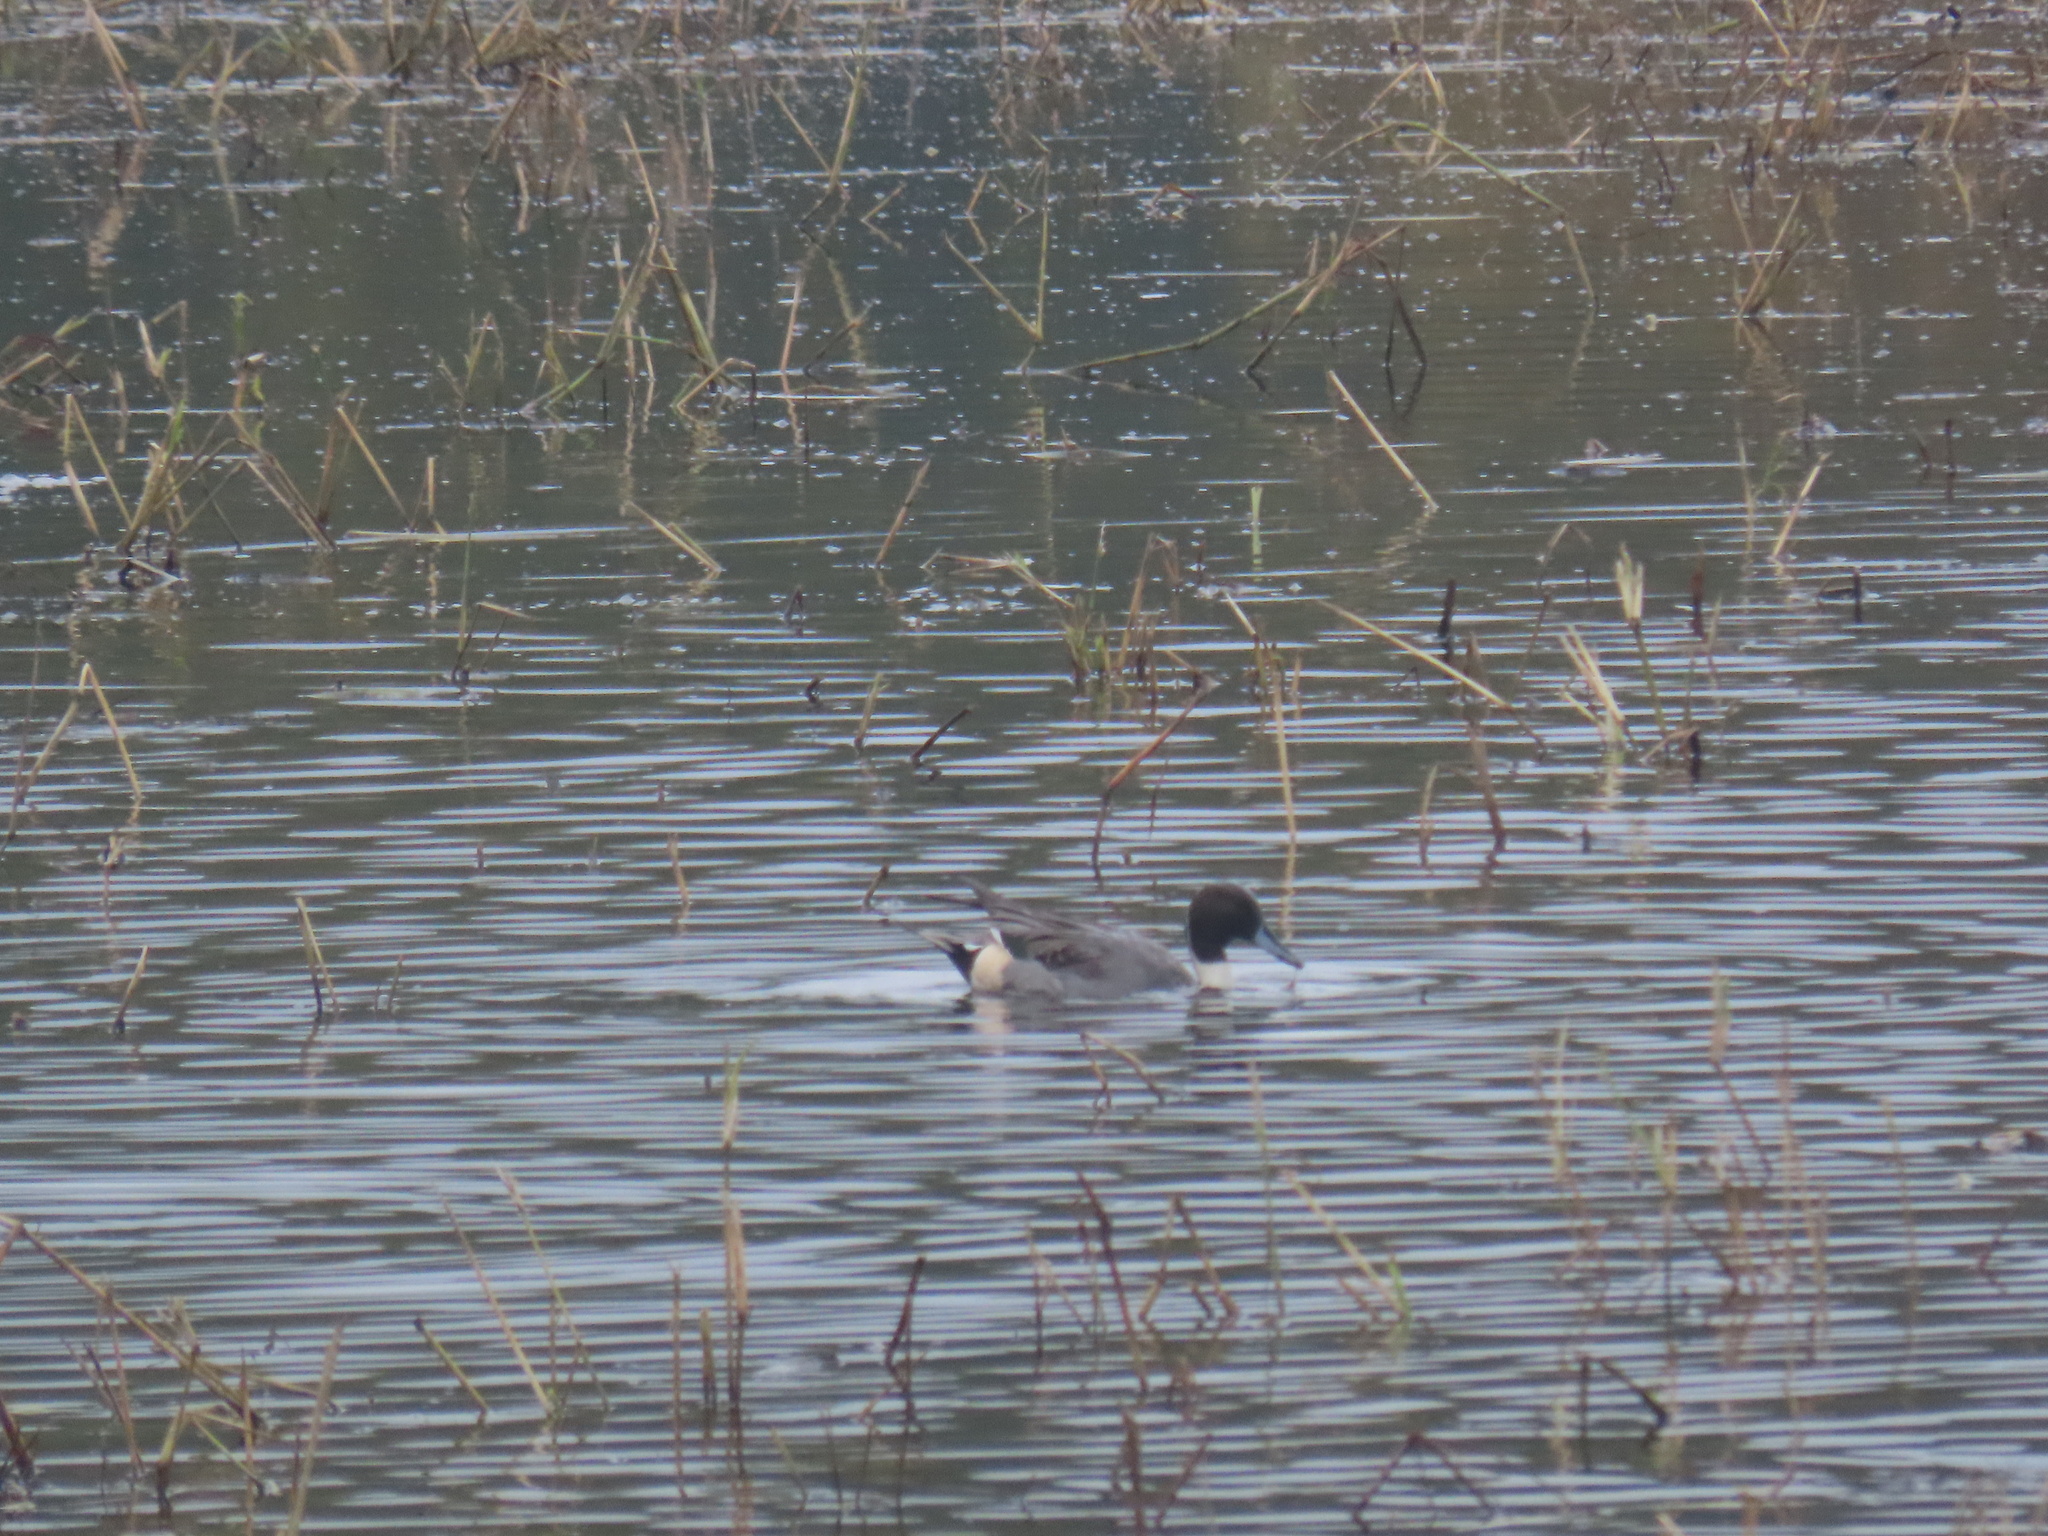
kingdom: Animalia
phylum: Chordata
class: Aves
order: Anseriformes
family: Anatidae
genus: Anas
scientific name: Anas acuta
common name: Northern pintail
